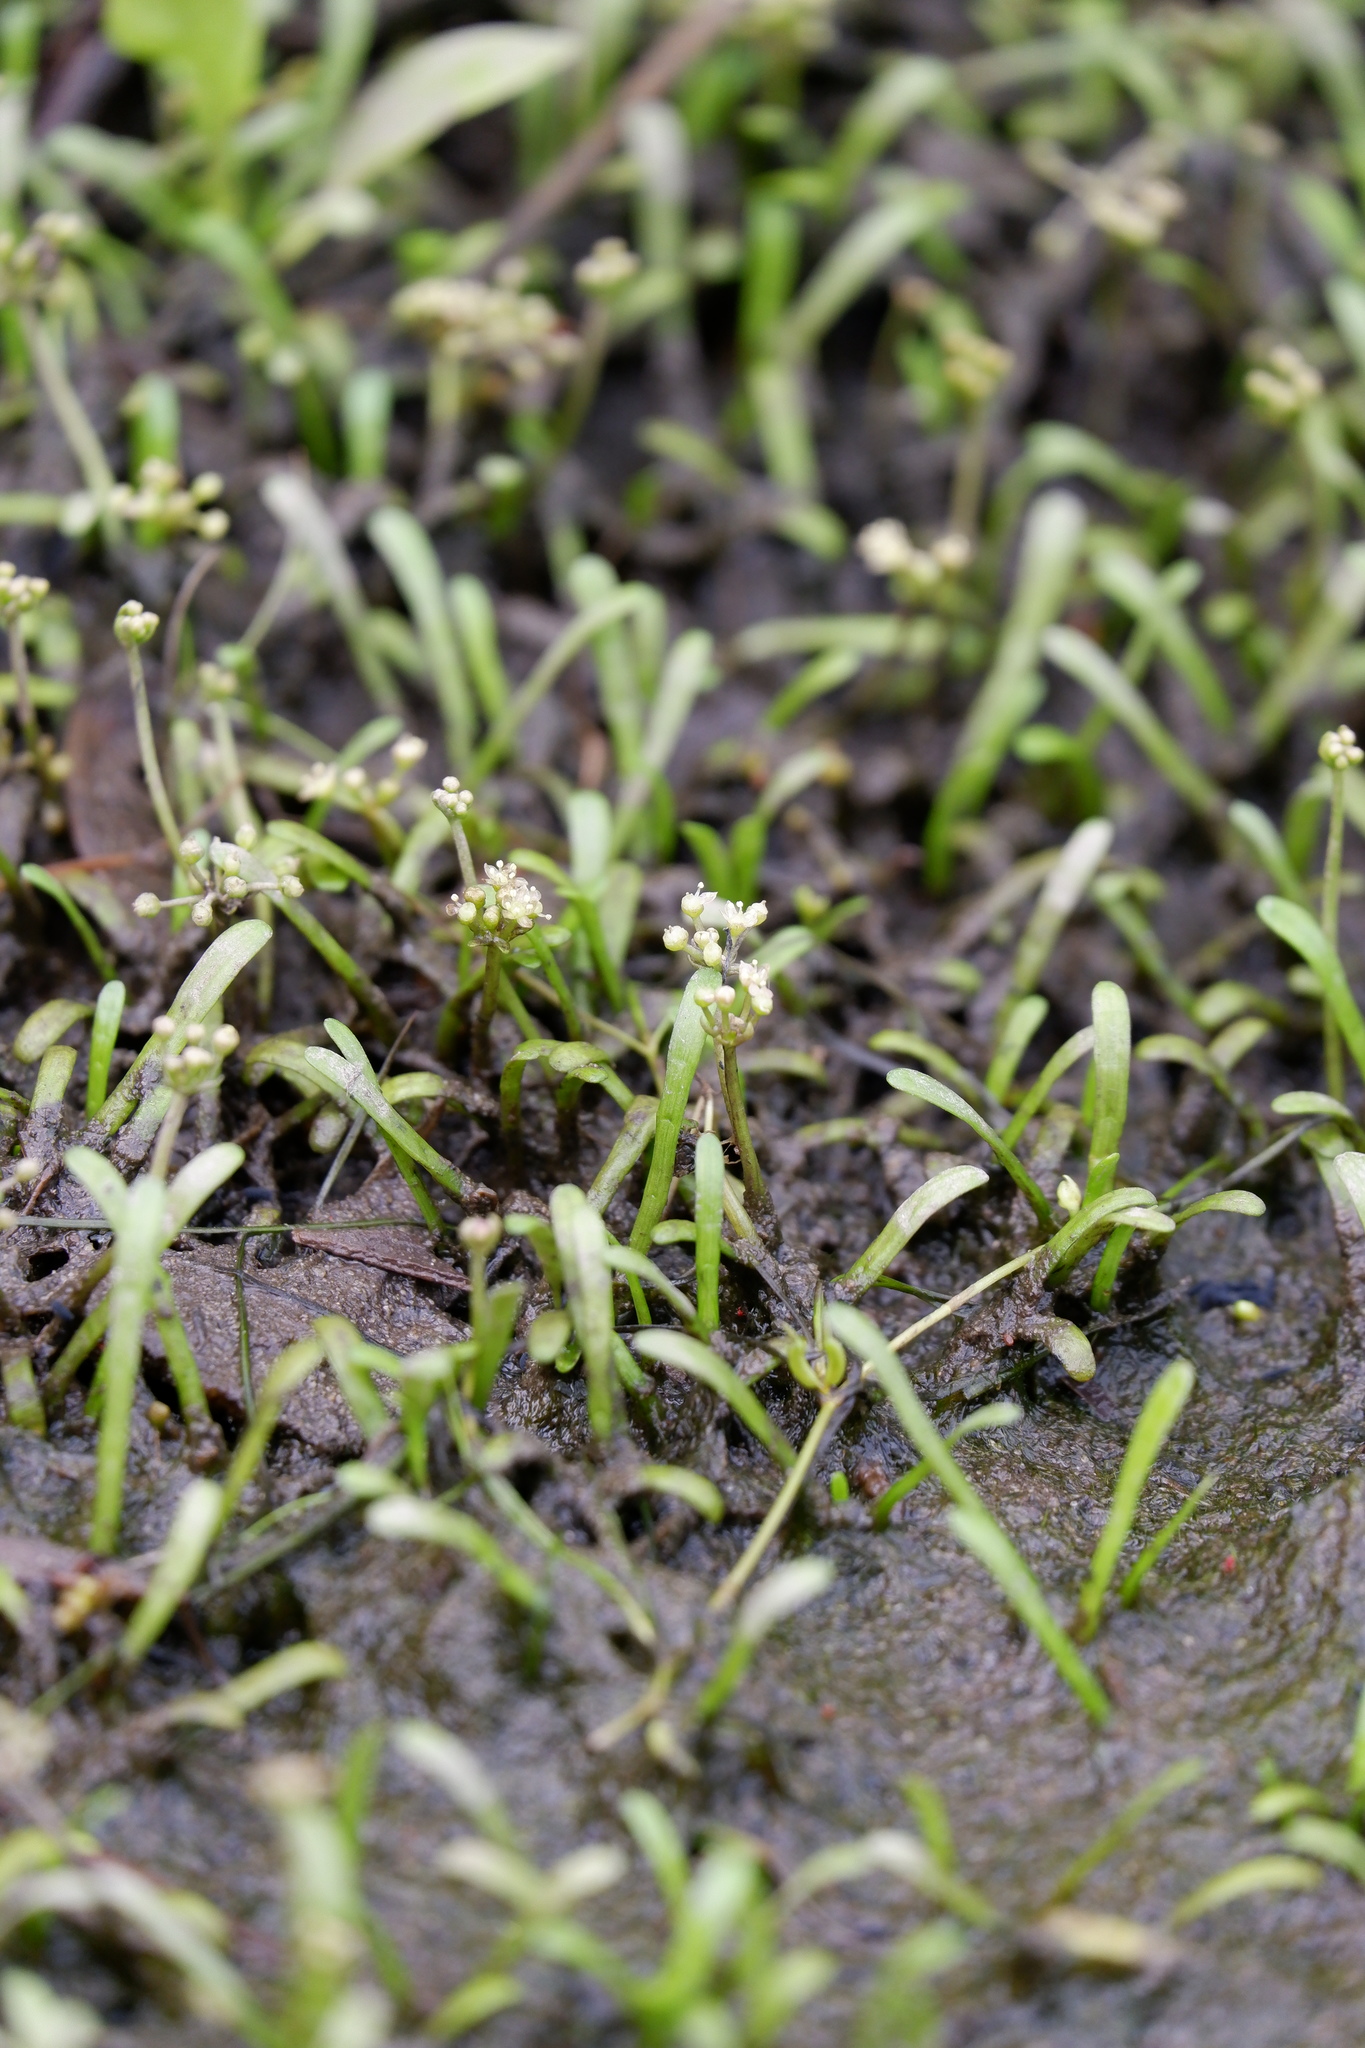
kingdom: Plantae
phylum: Tracheophyta
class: Magnoliopsida
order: Apiales
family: Apiaceae
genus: Lilaeopsis
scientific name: Lilaeopsis chinensis
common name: Eastern grasswort
